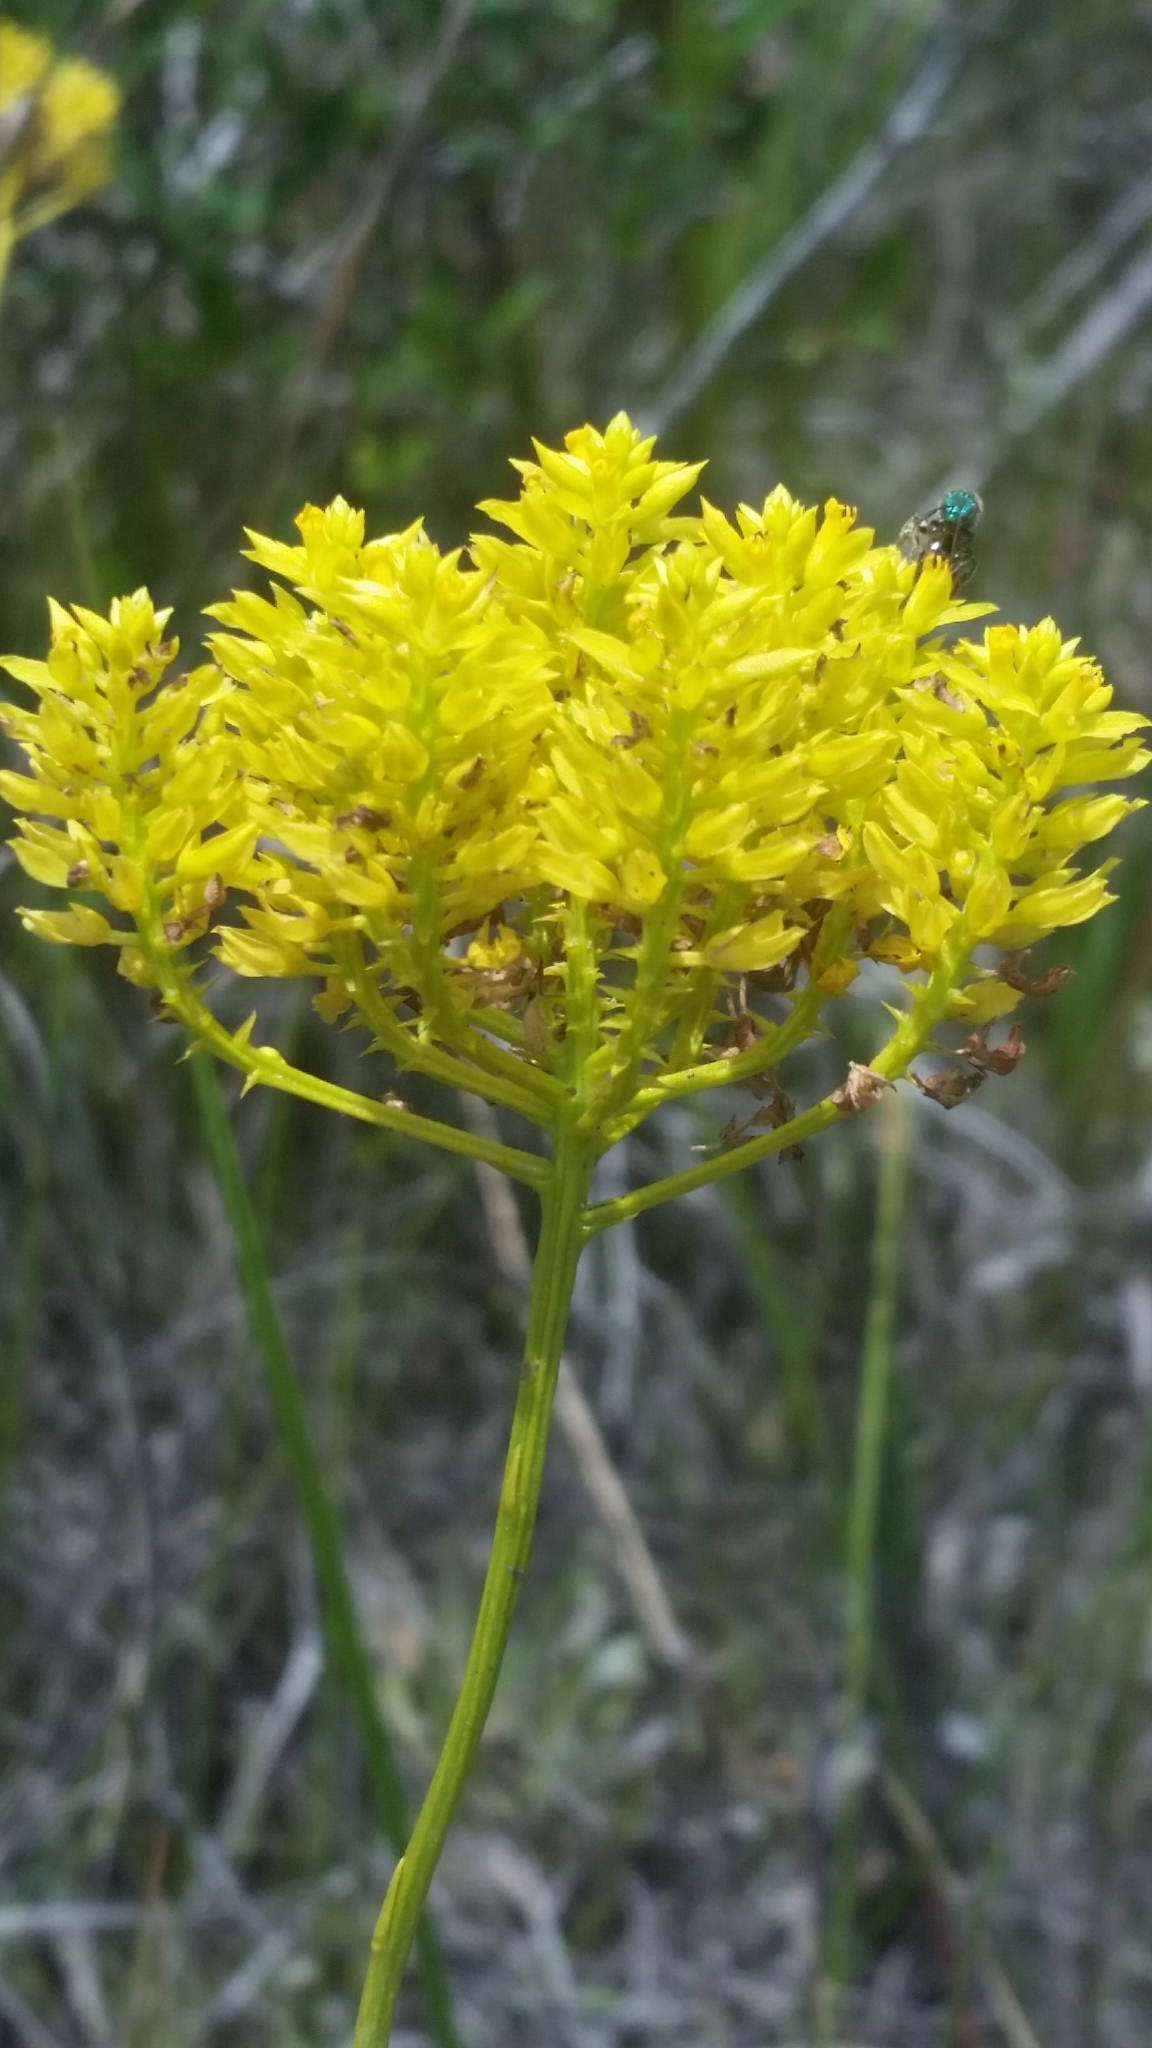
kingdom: Plantae
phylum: Tracheophyta
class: Magnoliopsida
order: Fabales
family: Polygalaceae
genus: Polygala
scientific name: Polygala cymosa
